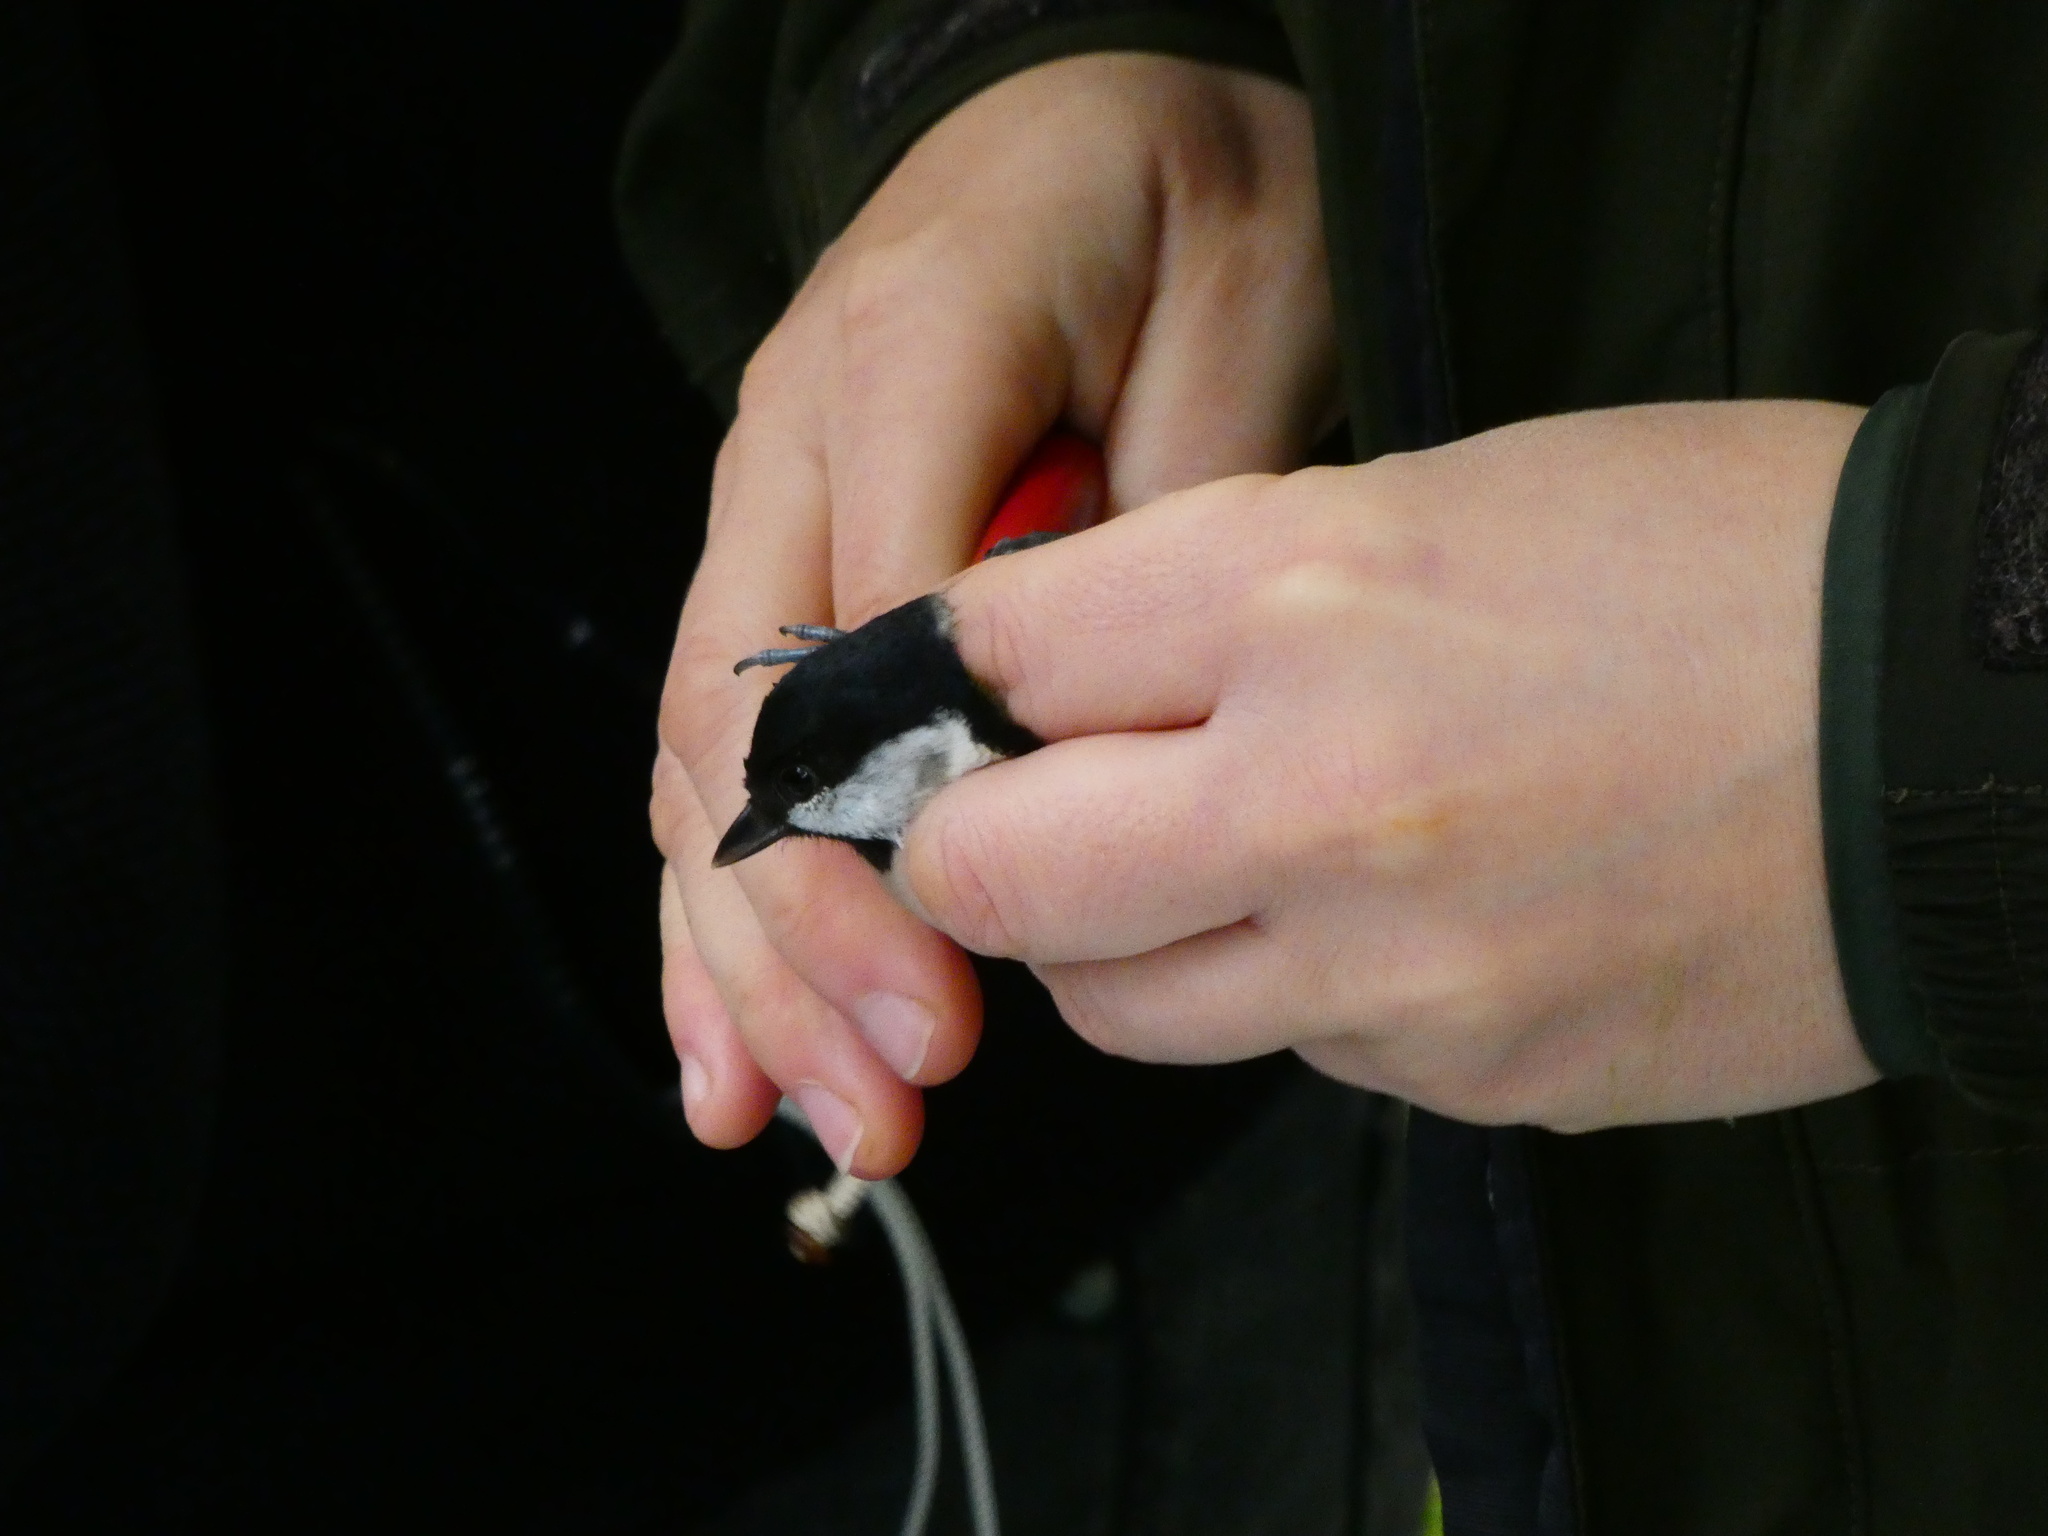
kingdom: Animalia
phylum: Chordata
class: Aves
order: Passeriformes
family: Paridae
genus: Parus
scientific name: Parus major
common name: Great tit
